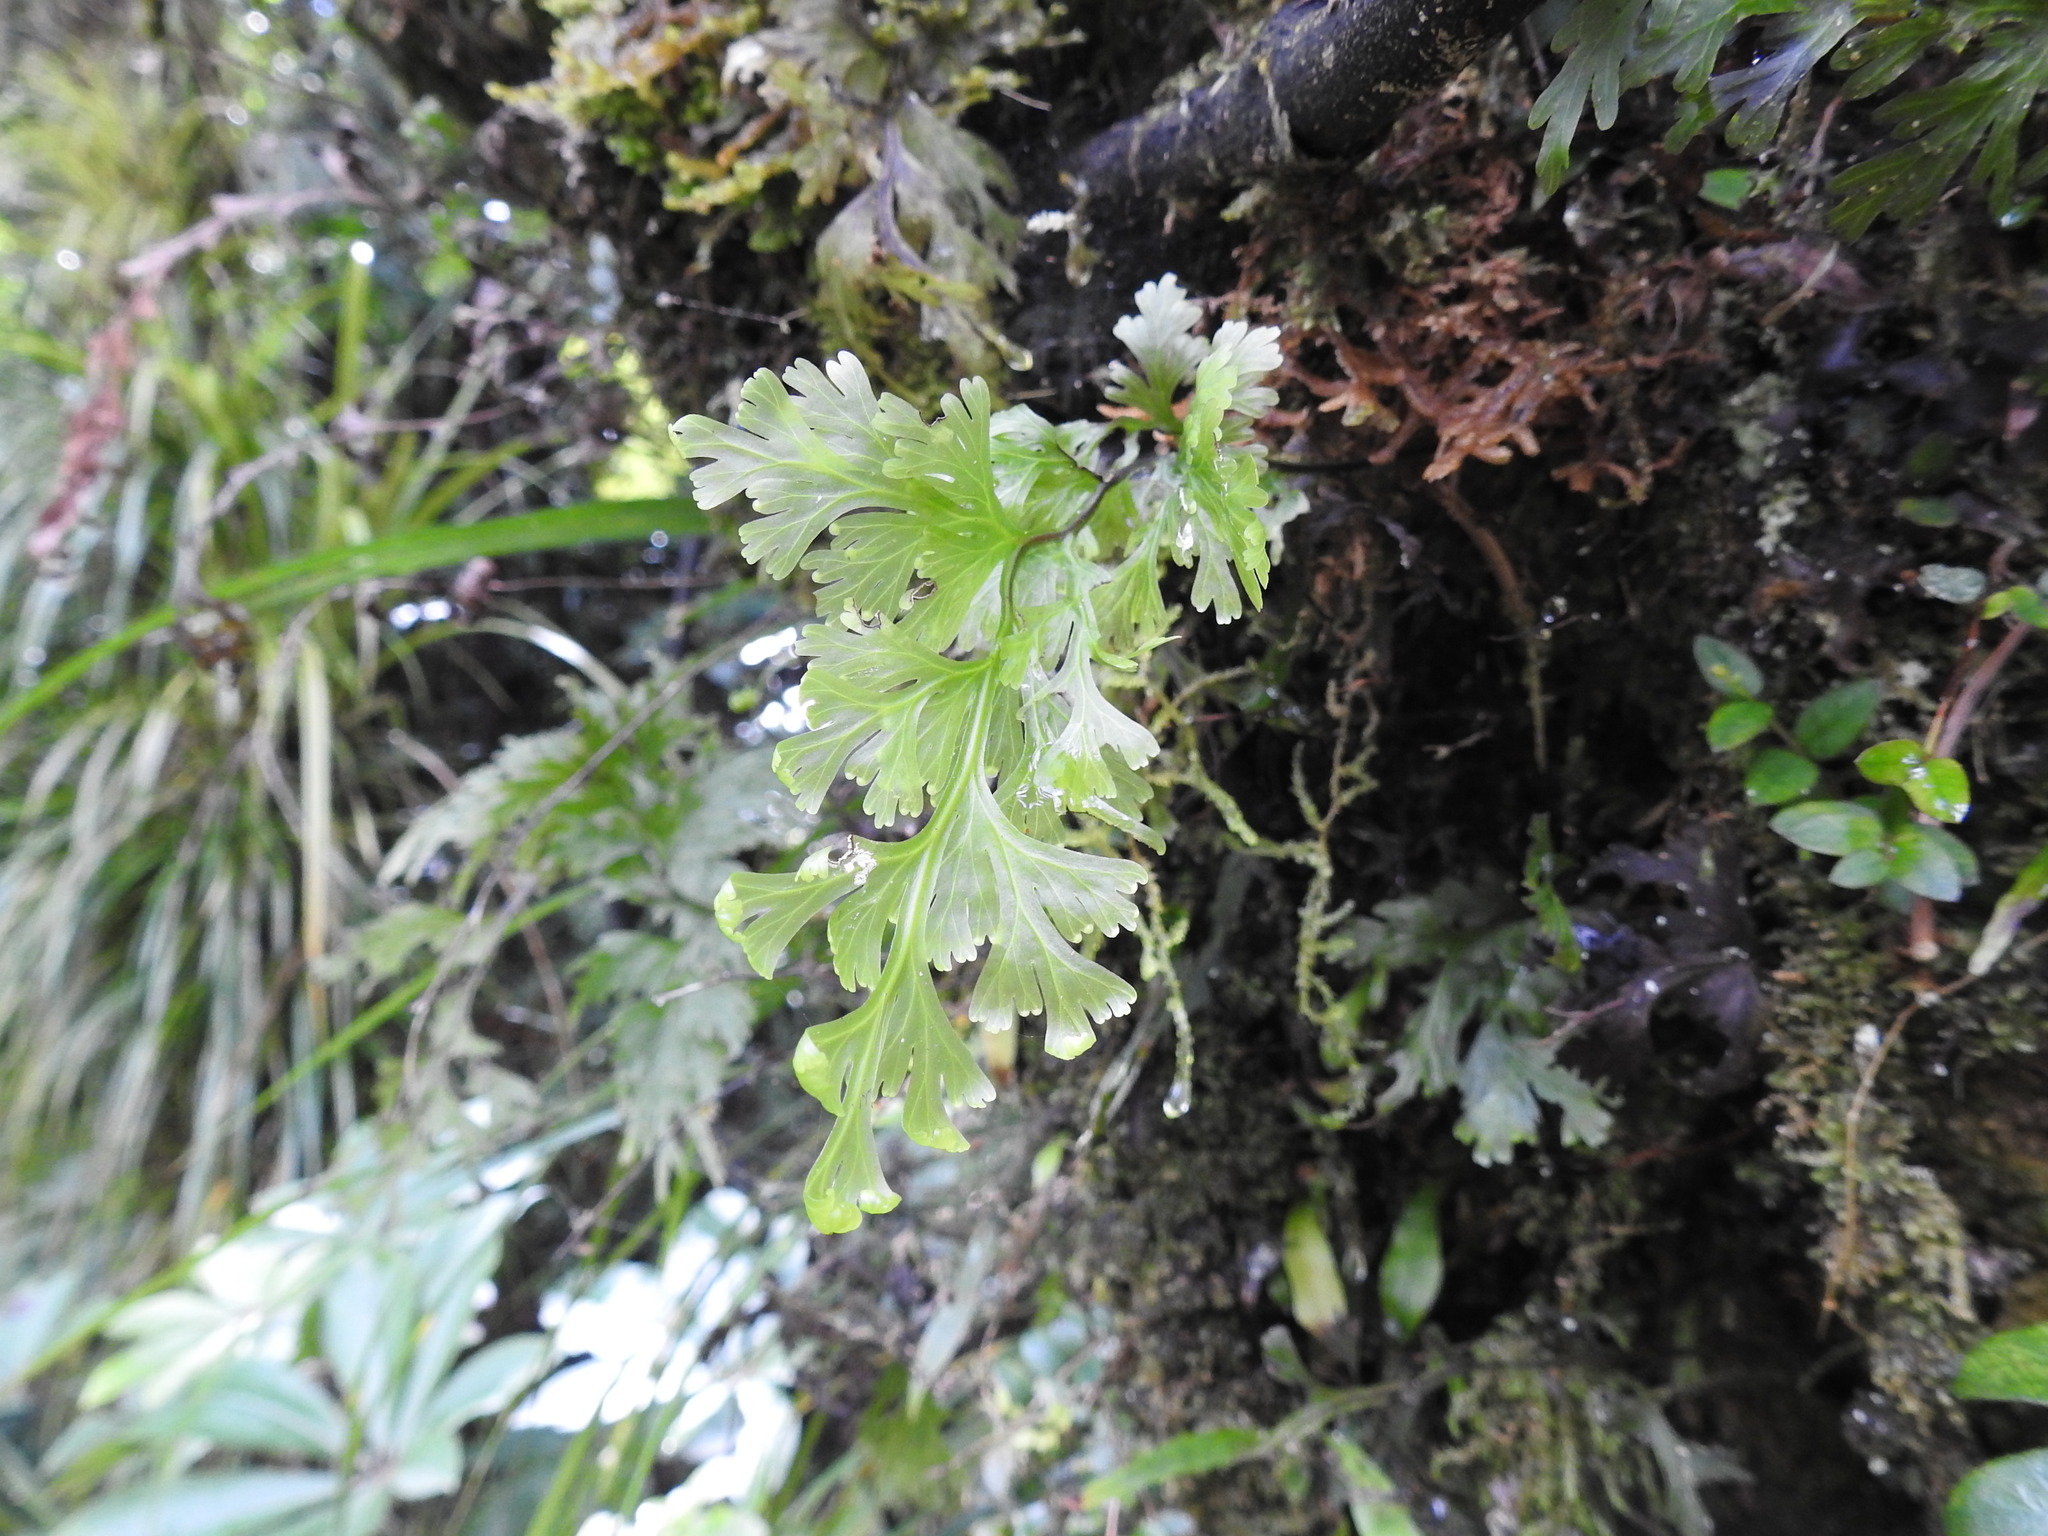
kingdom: Plantae
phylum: Tracheophyta
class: Polypodiopsida
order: Hymenophyllales
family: Hymenophyllaceae
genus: Hymenophyllum
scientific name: Hymenophyllum dilatatum
